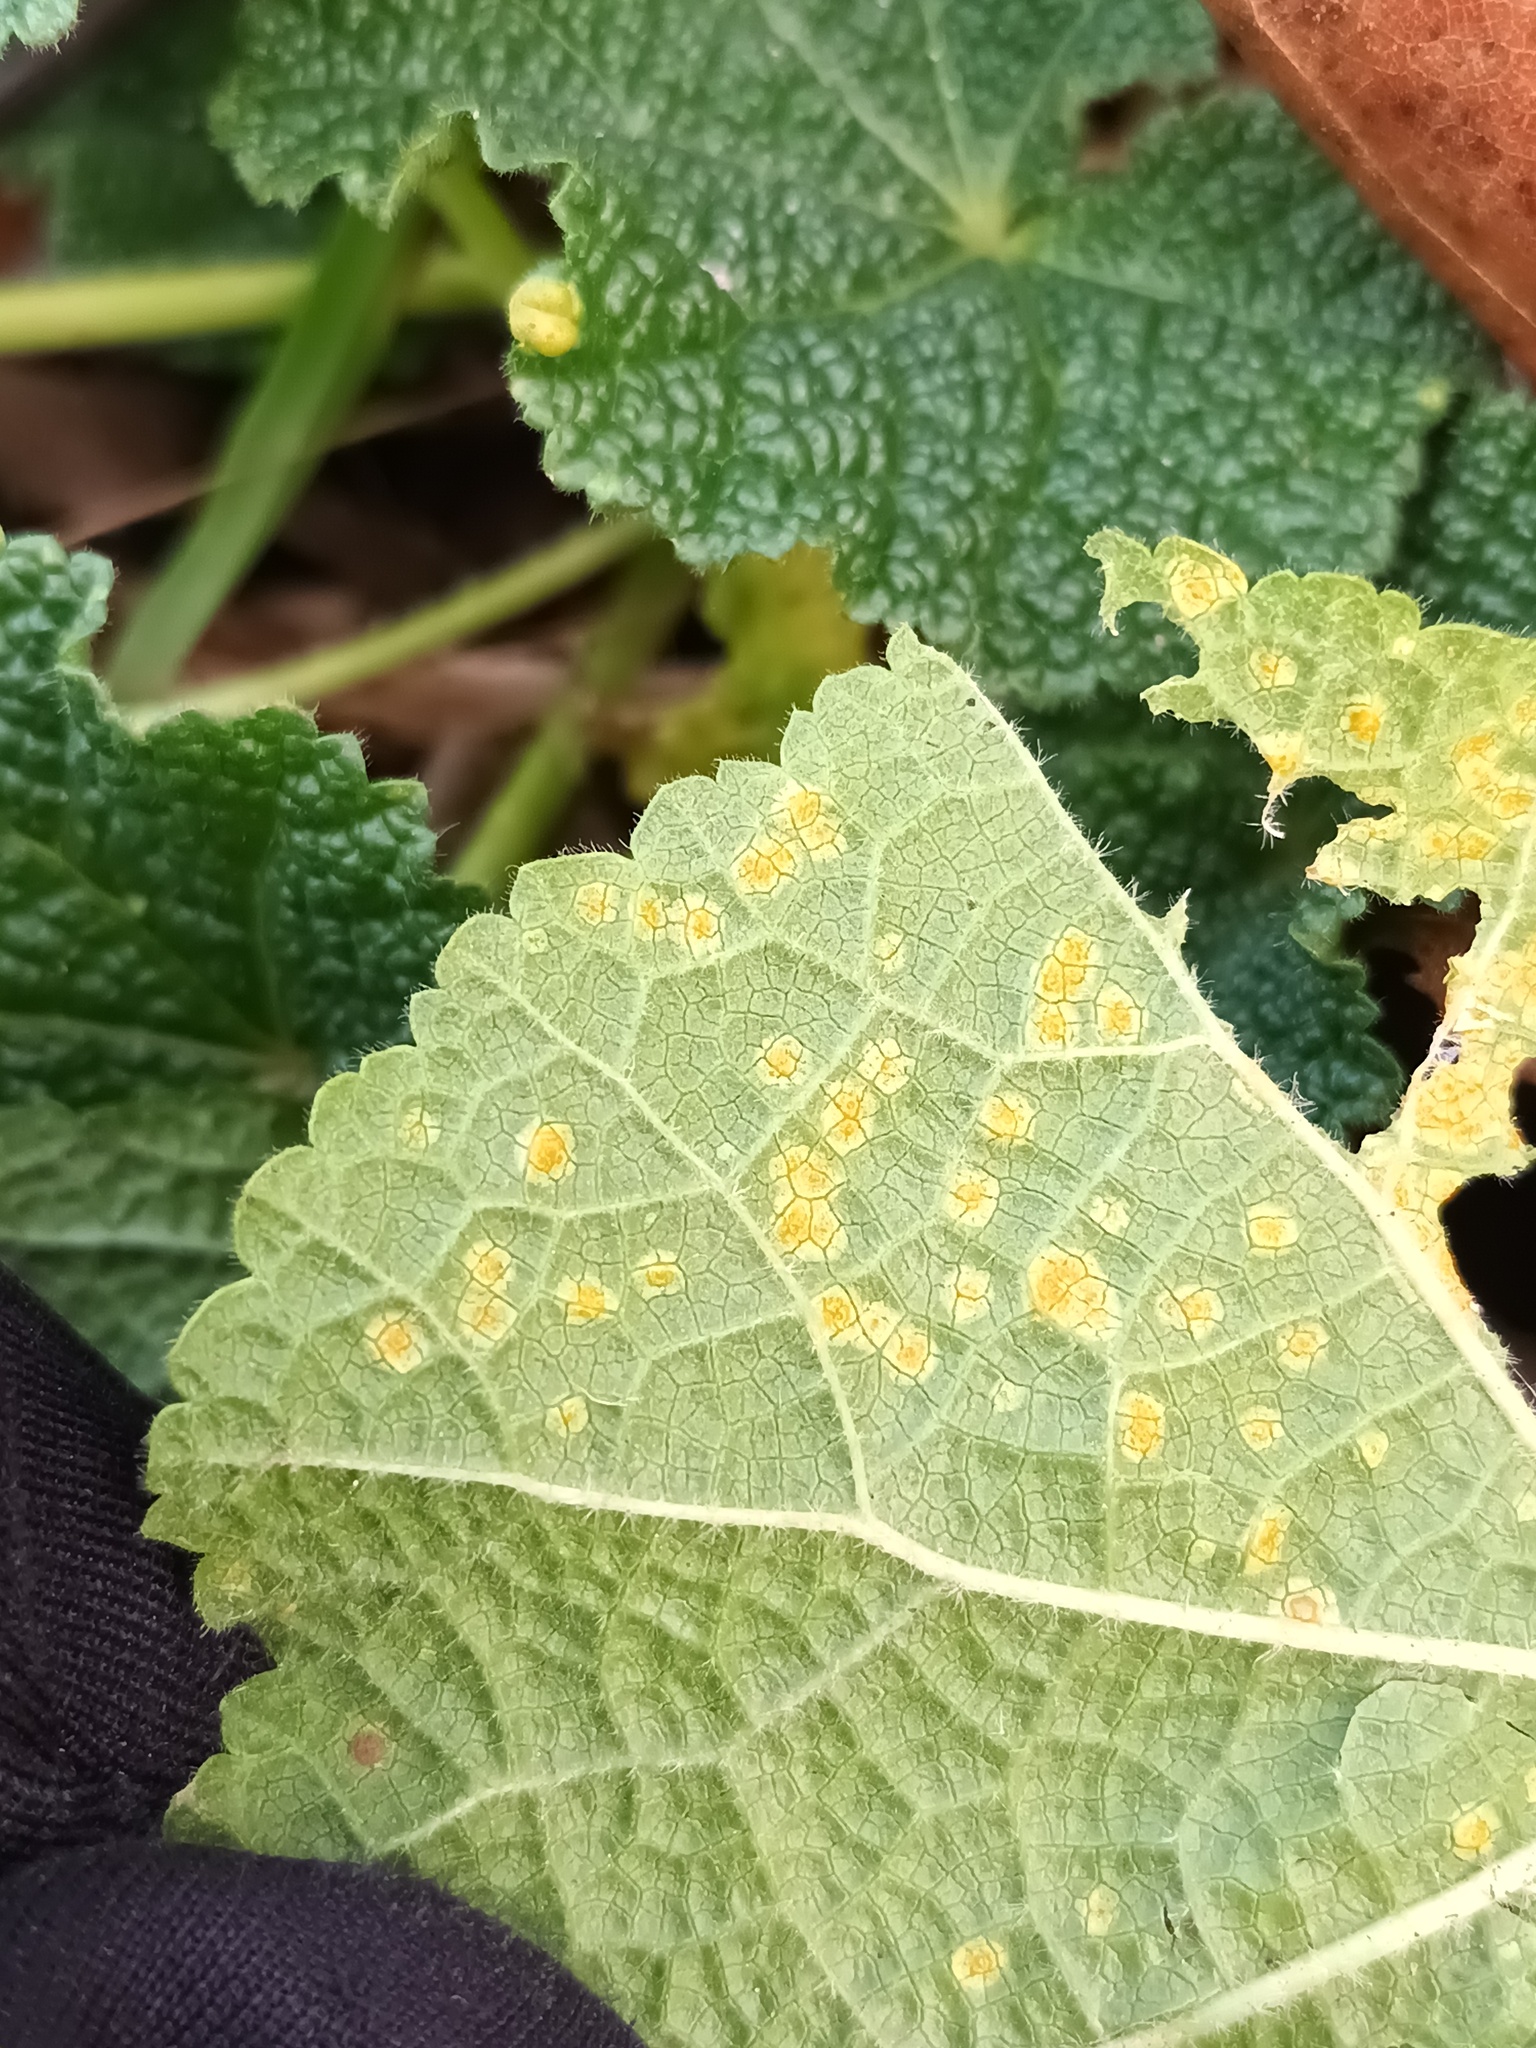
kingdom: Fungi
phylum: Basidiomycota
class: Pucciniomycetes
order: Pucciniales
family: Pucciniaceae
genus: Puccinia
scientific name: Puccinia malvacearum
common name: Hollyhock rust
